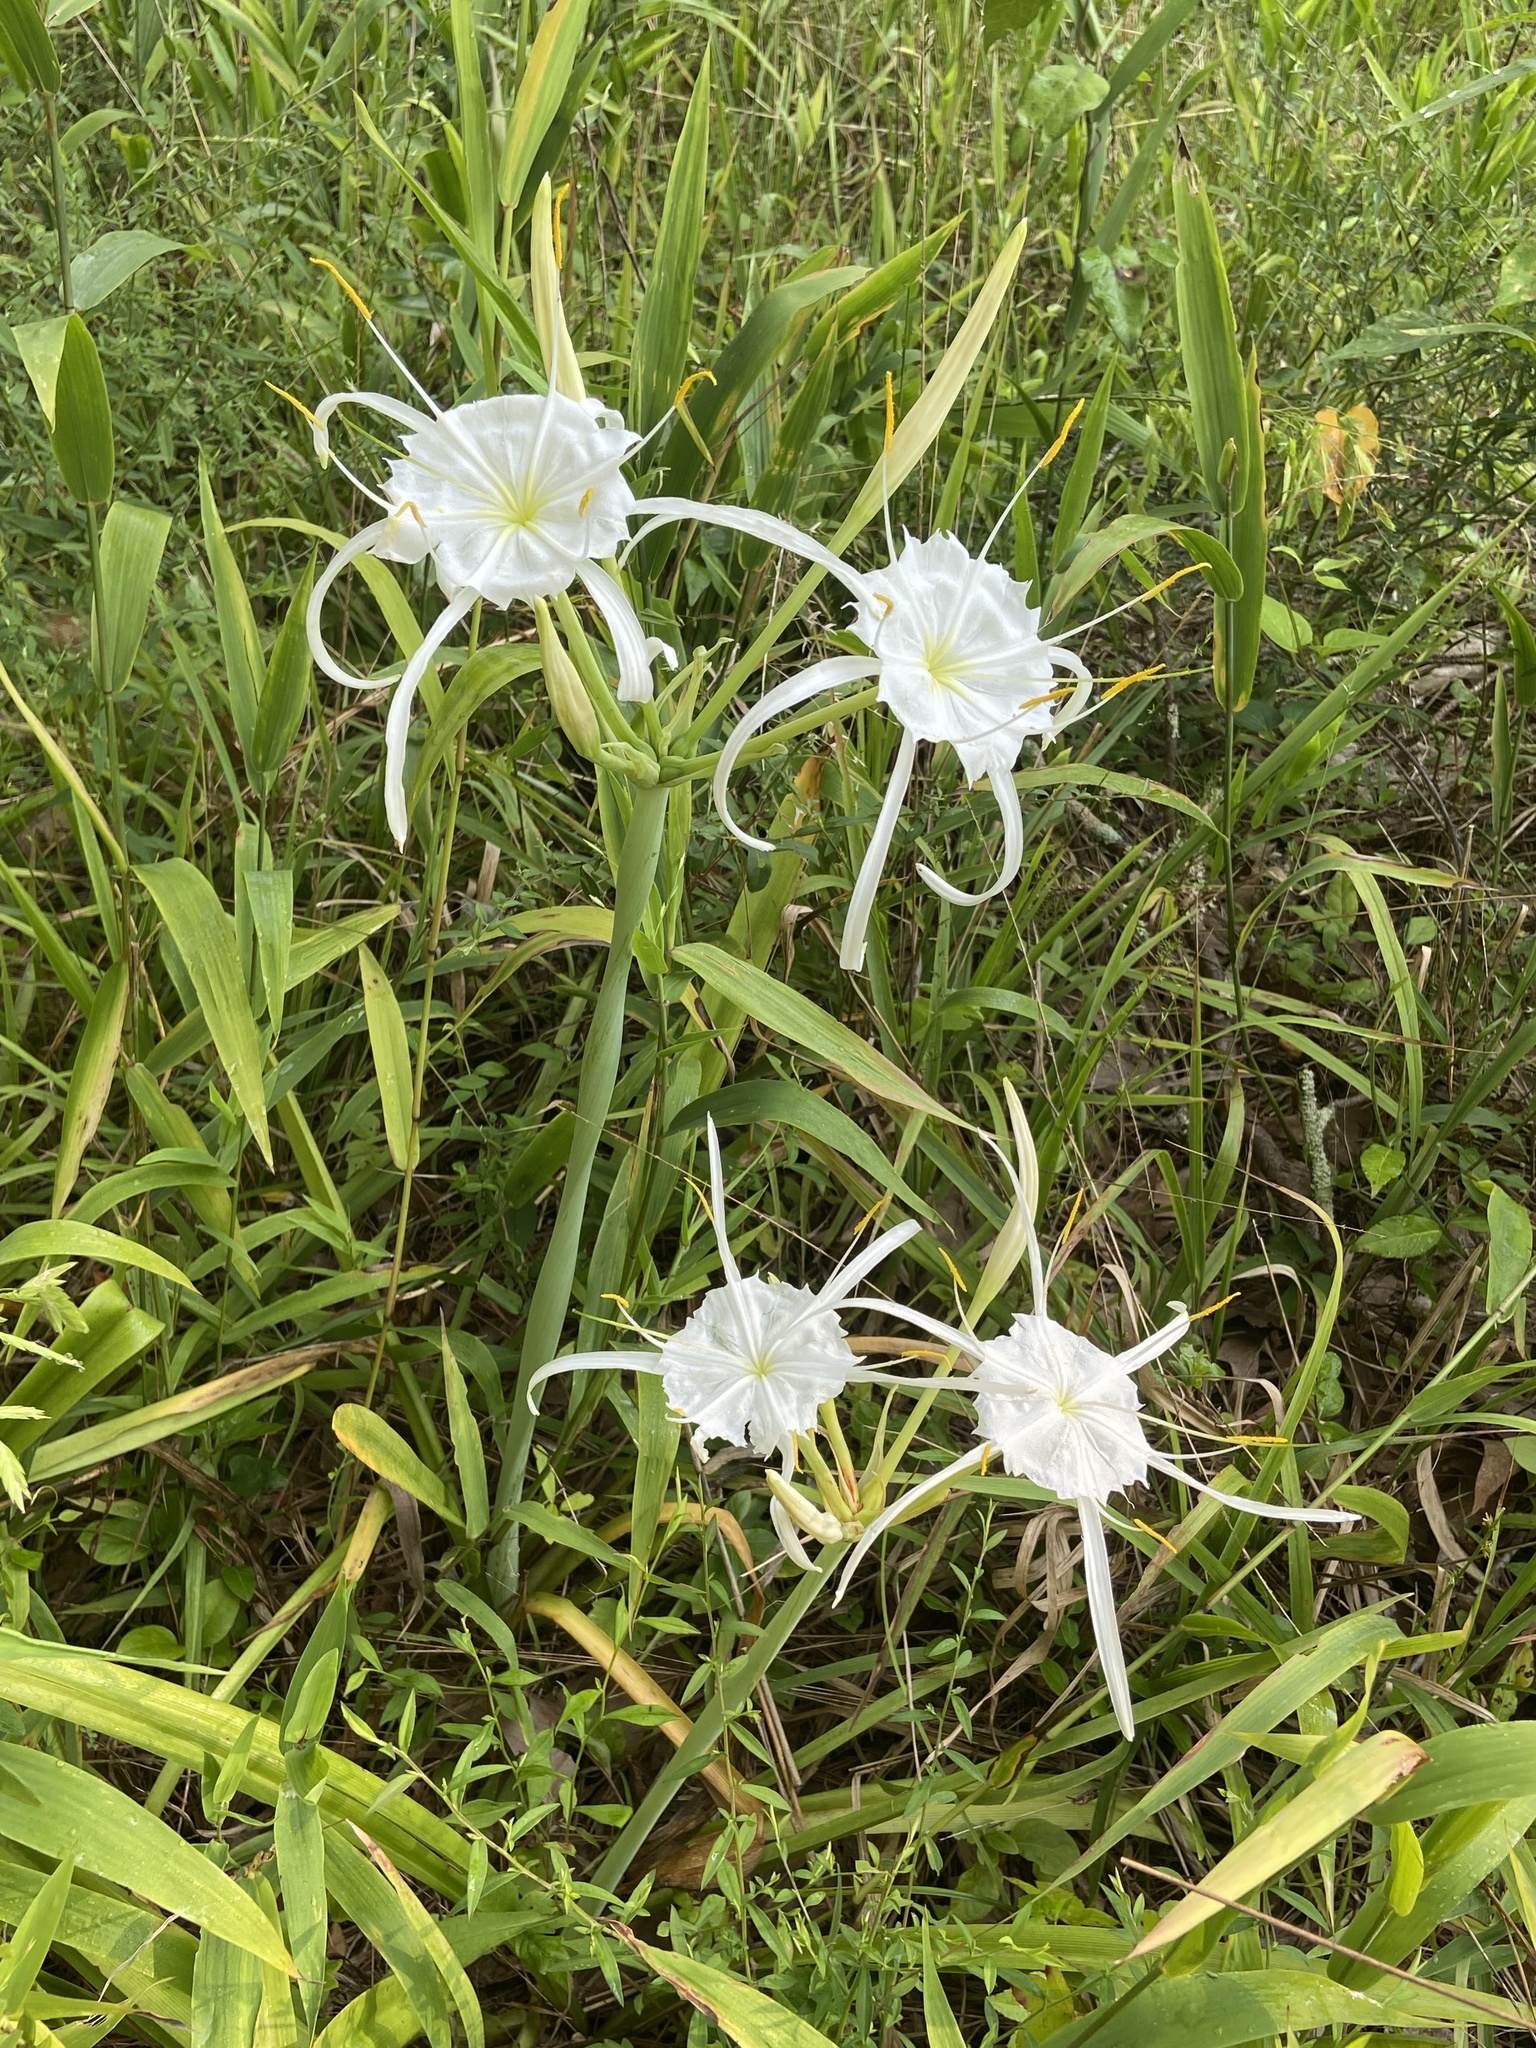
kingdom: Plantae
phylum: Tracheophyta
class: Liliopsida
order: Asparagales
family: Amaryllidaceae
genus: Hymenocallis
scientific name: Hymenocallis occidentalis
